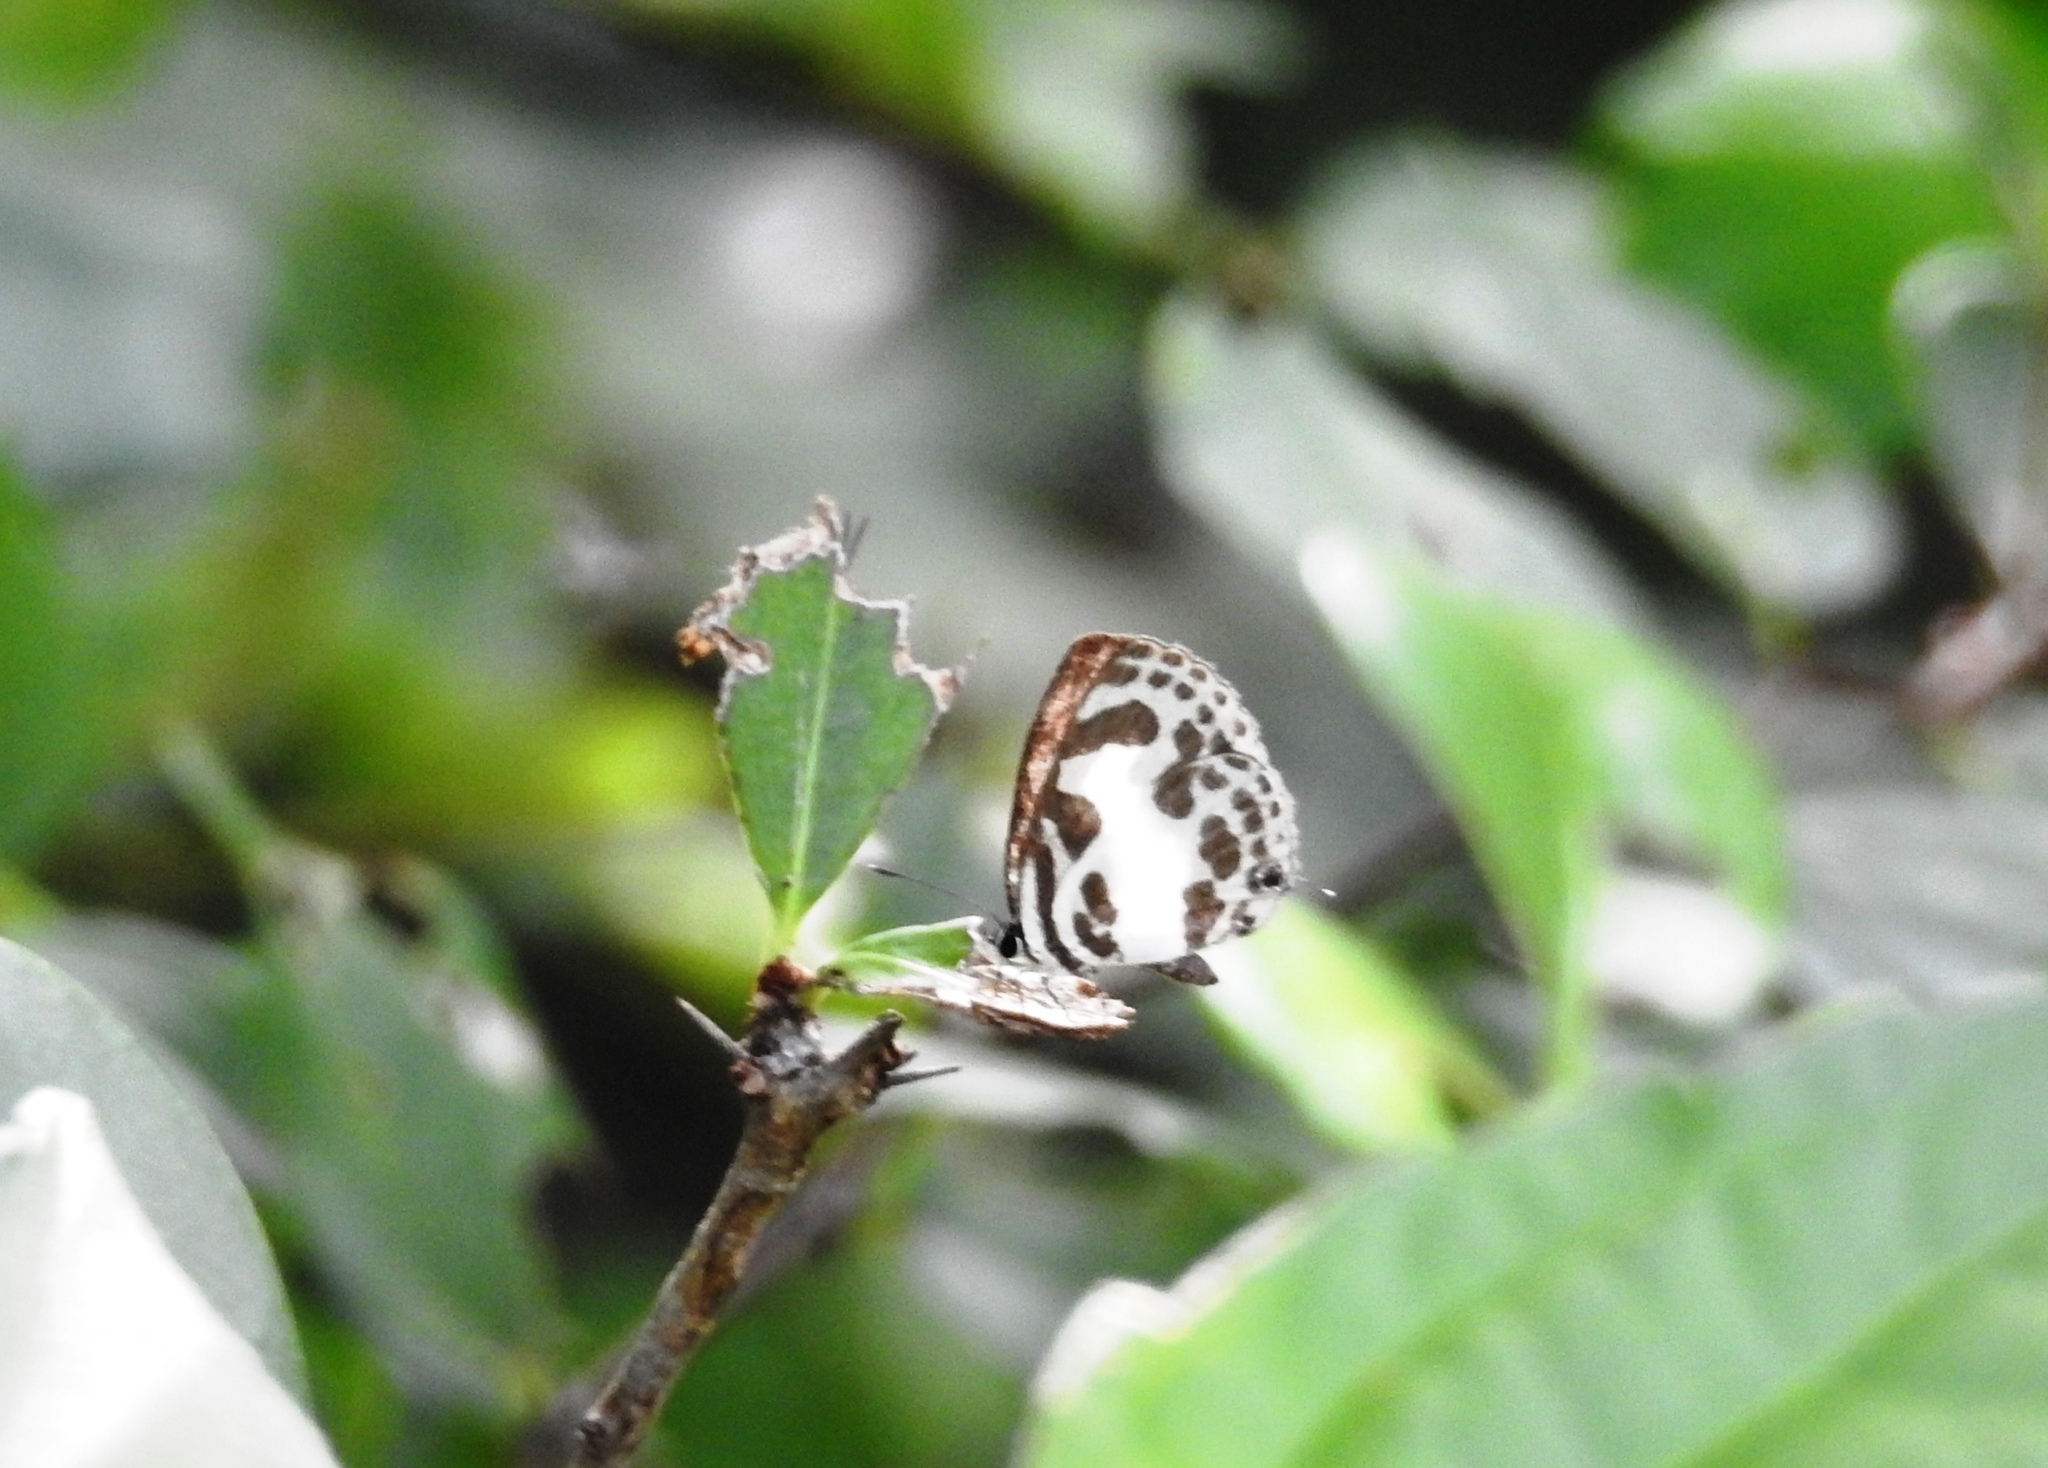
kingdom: Animalia
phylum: Arthropoda
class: Insecta
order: Lepidoptera
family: Lycaenidae
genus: Discolampa
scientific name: Discolampa ethion
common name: Banded blue pierrot
